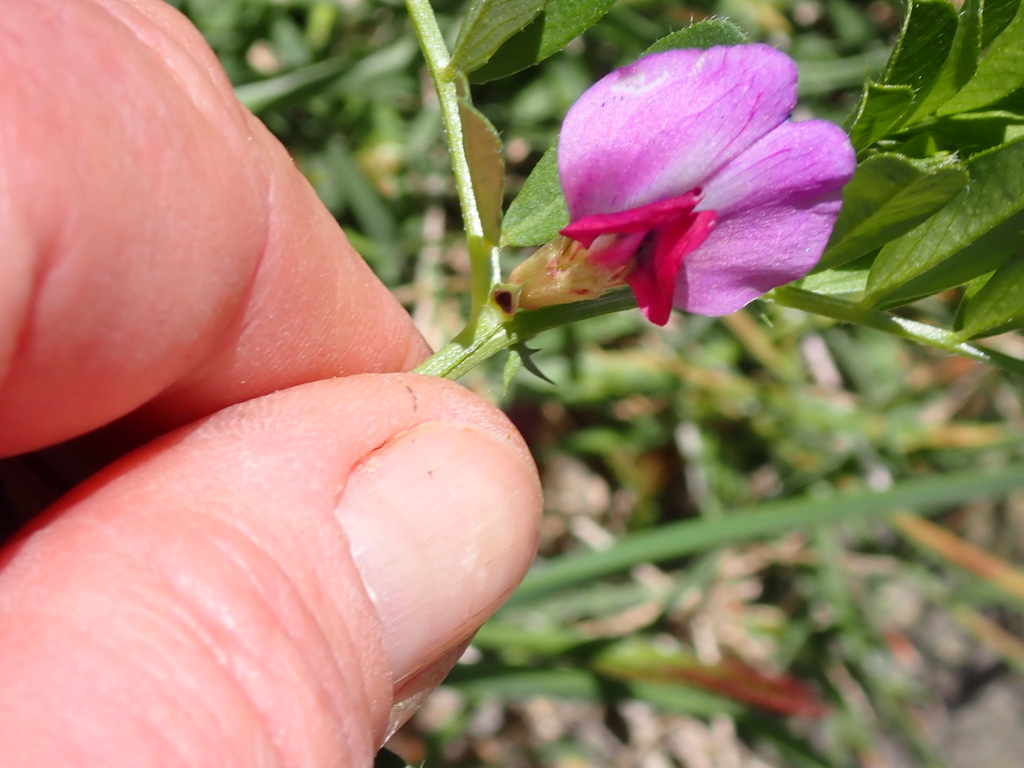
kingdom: Plantae
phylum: Tracheophyta
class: Magnoliopsida
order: Fabales
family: Fabaceae
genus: Vicia
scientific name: Vicia sativa
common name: Garden vetch
